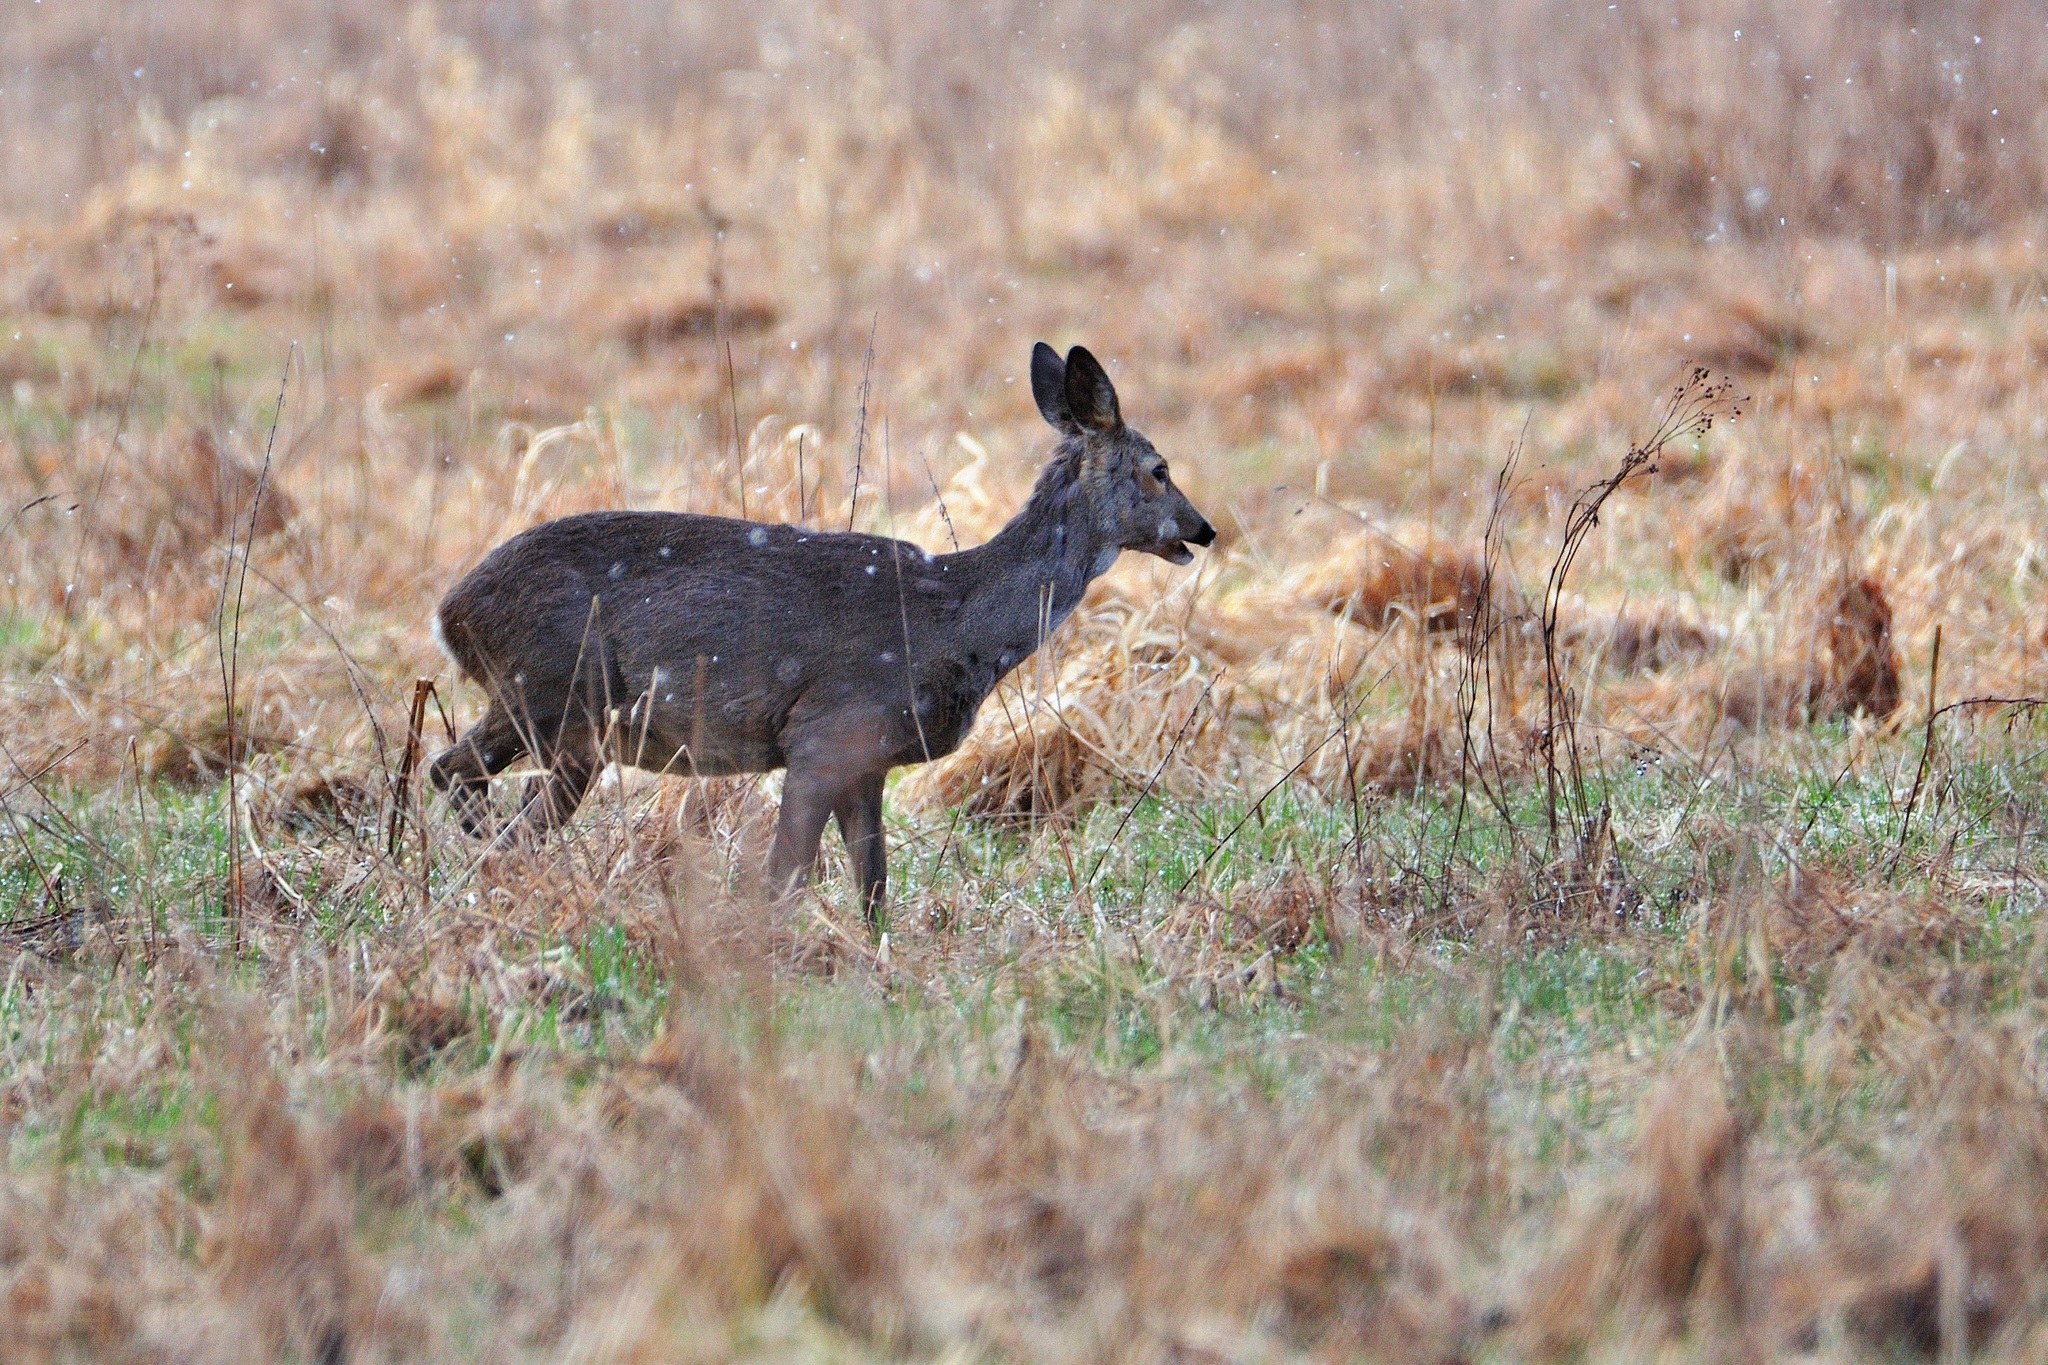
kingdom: Animalia
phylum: Chordata
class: Mammalia
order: Artiodactyla
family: Cervidae
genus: Capreolus
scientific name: Capreolus capreolus
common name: Western roe deer
